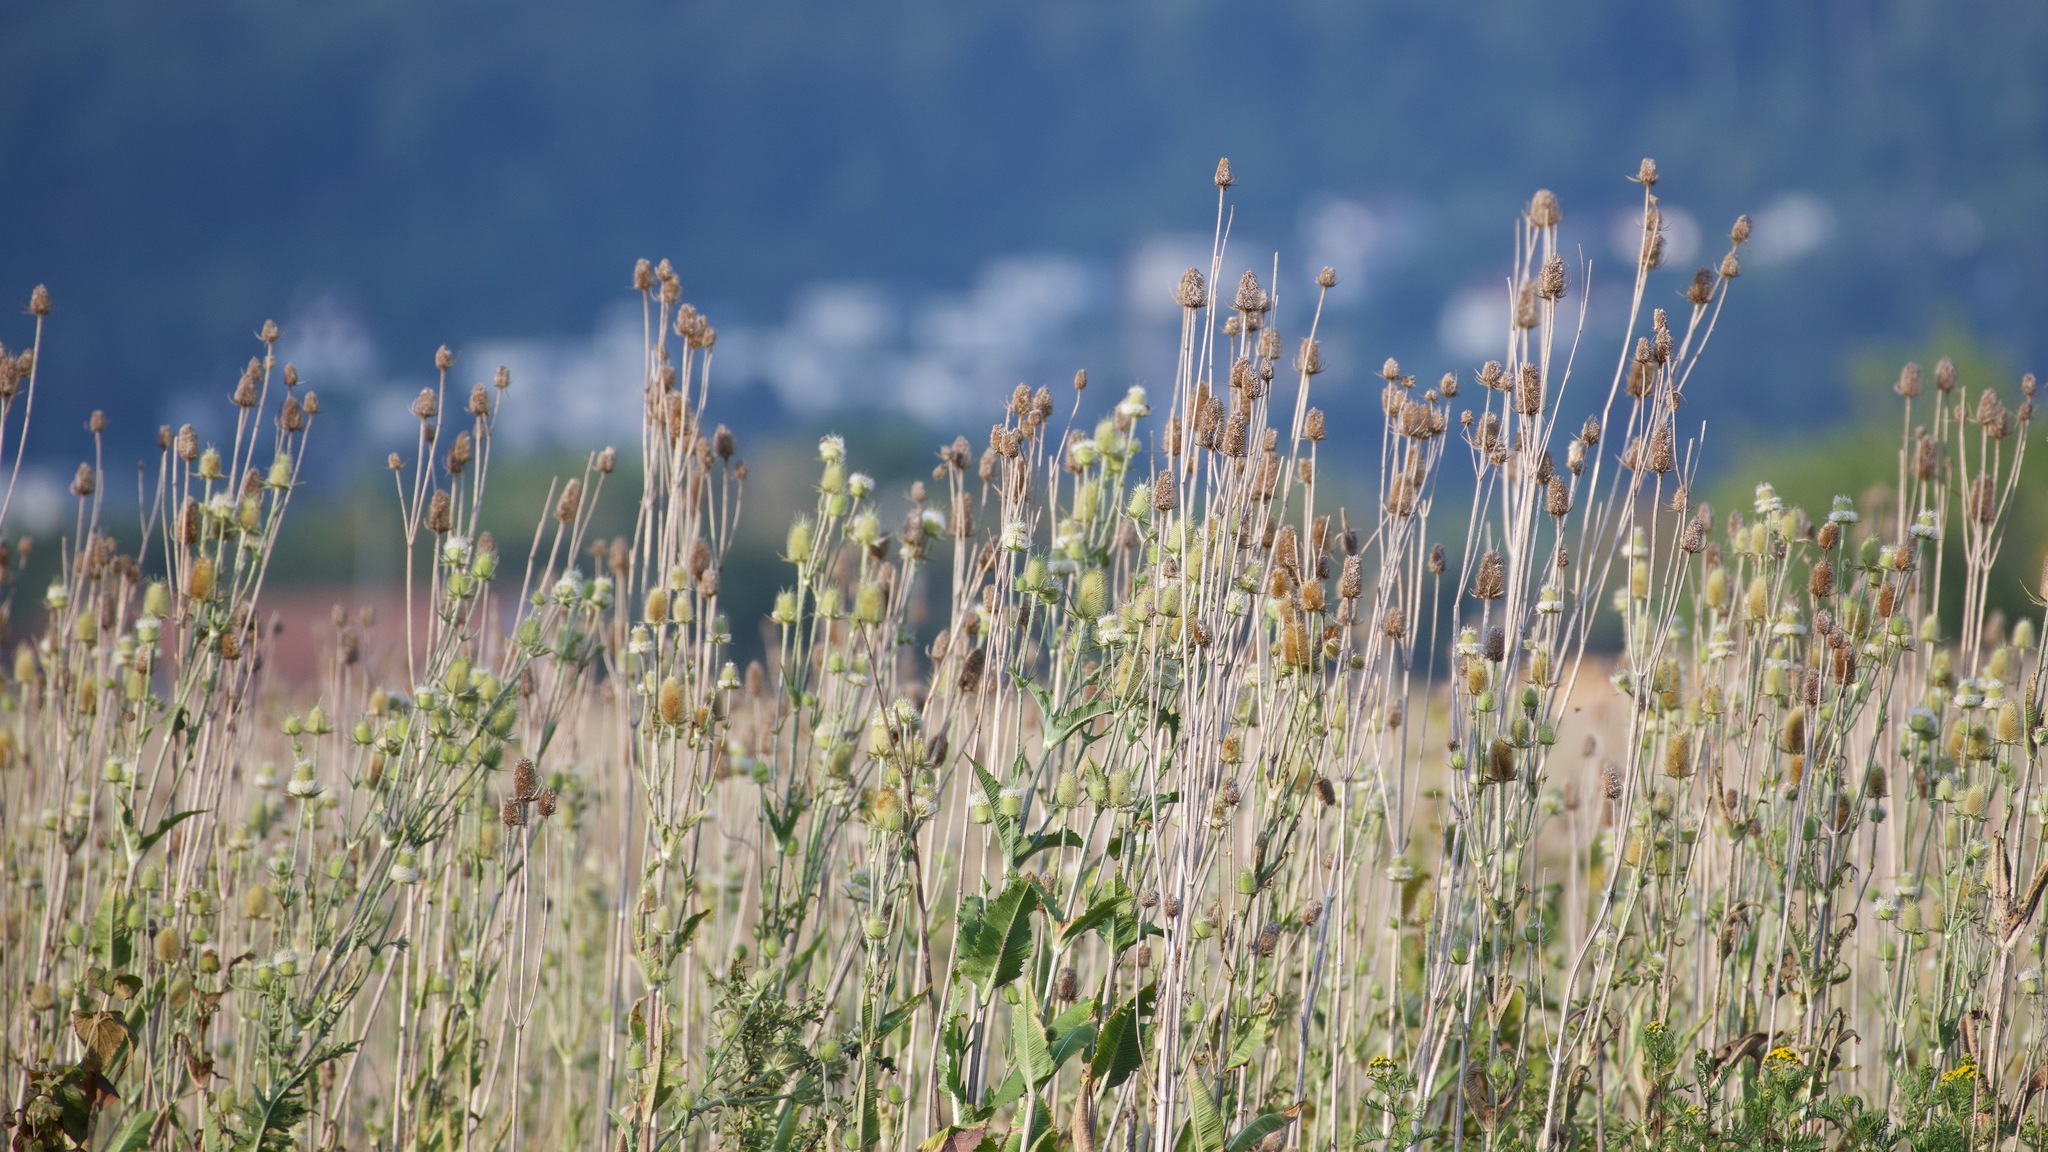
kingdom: Plantae
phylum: Tracheophyta
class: Magnoliopsida
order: Dipsacales
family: Caprifoliaceae
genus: Dipsacus
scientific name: Dipsacus laciniatus
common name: Cut-leaved teasel
